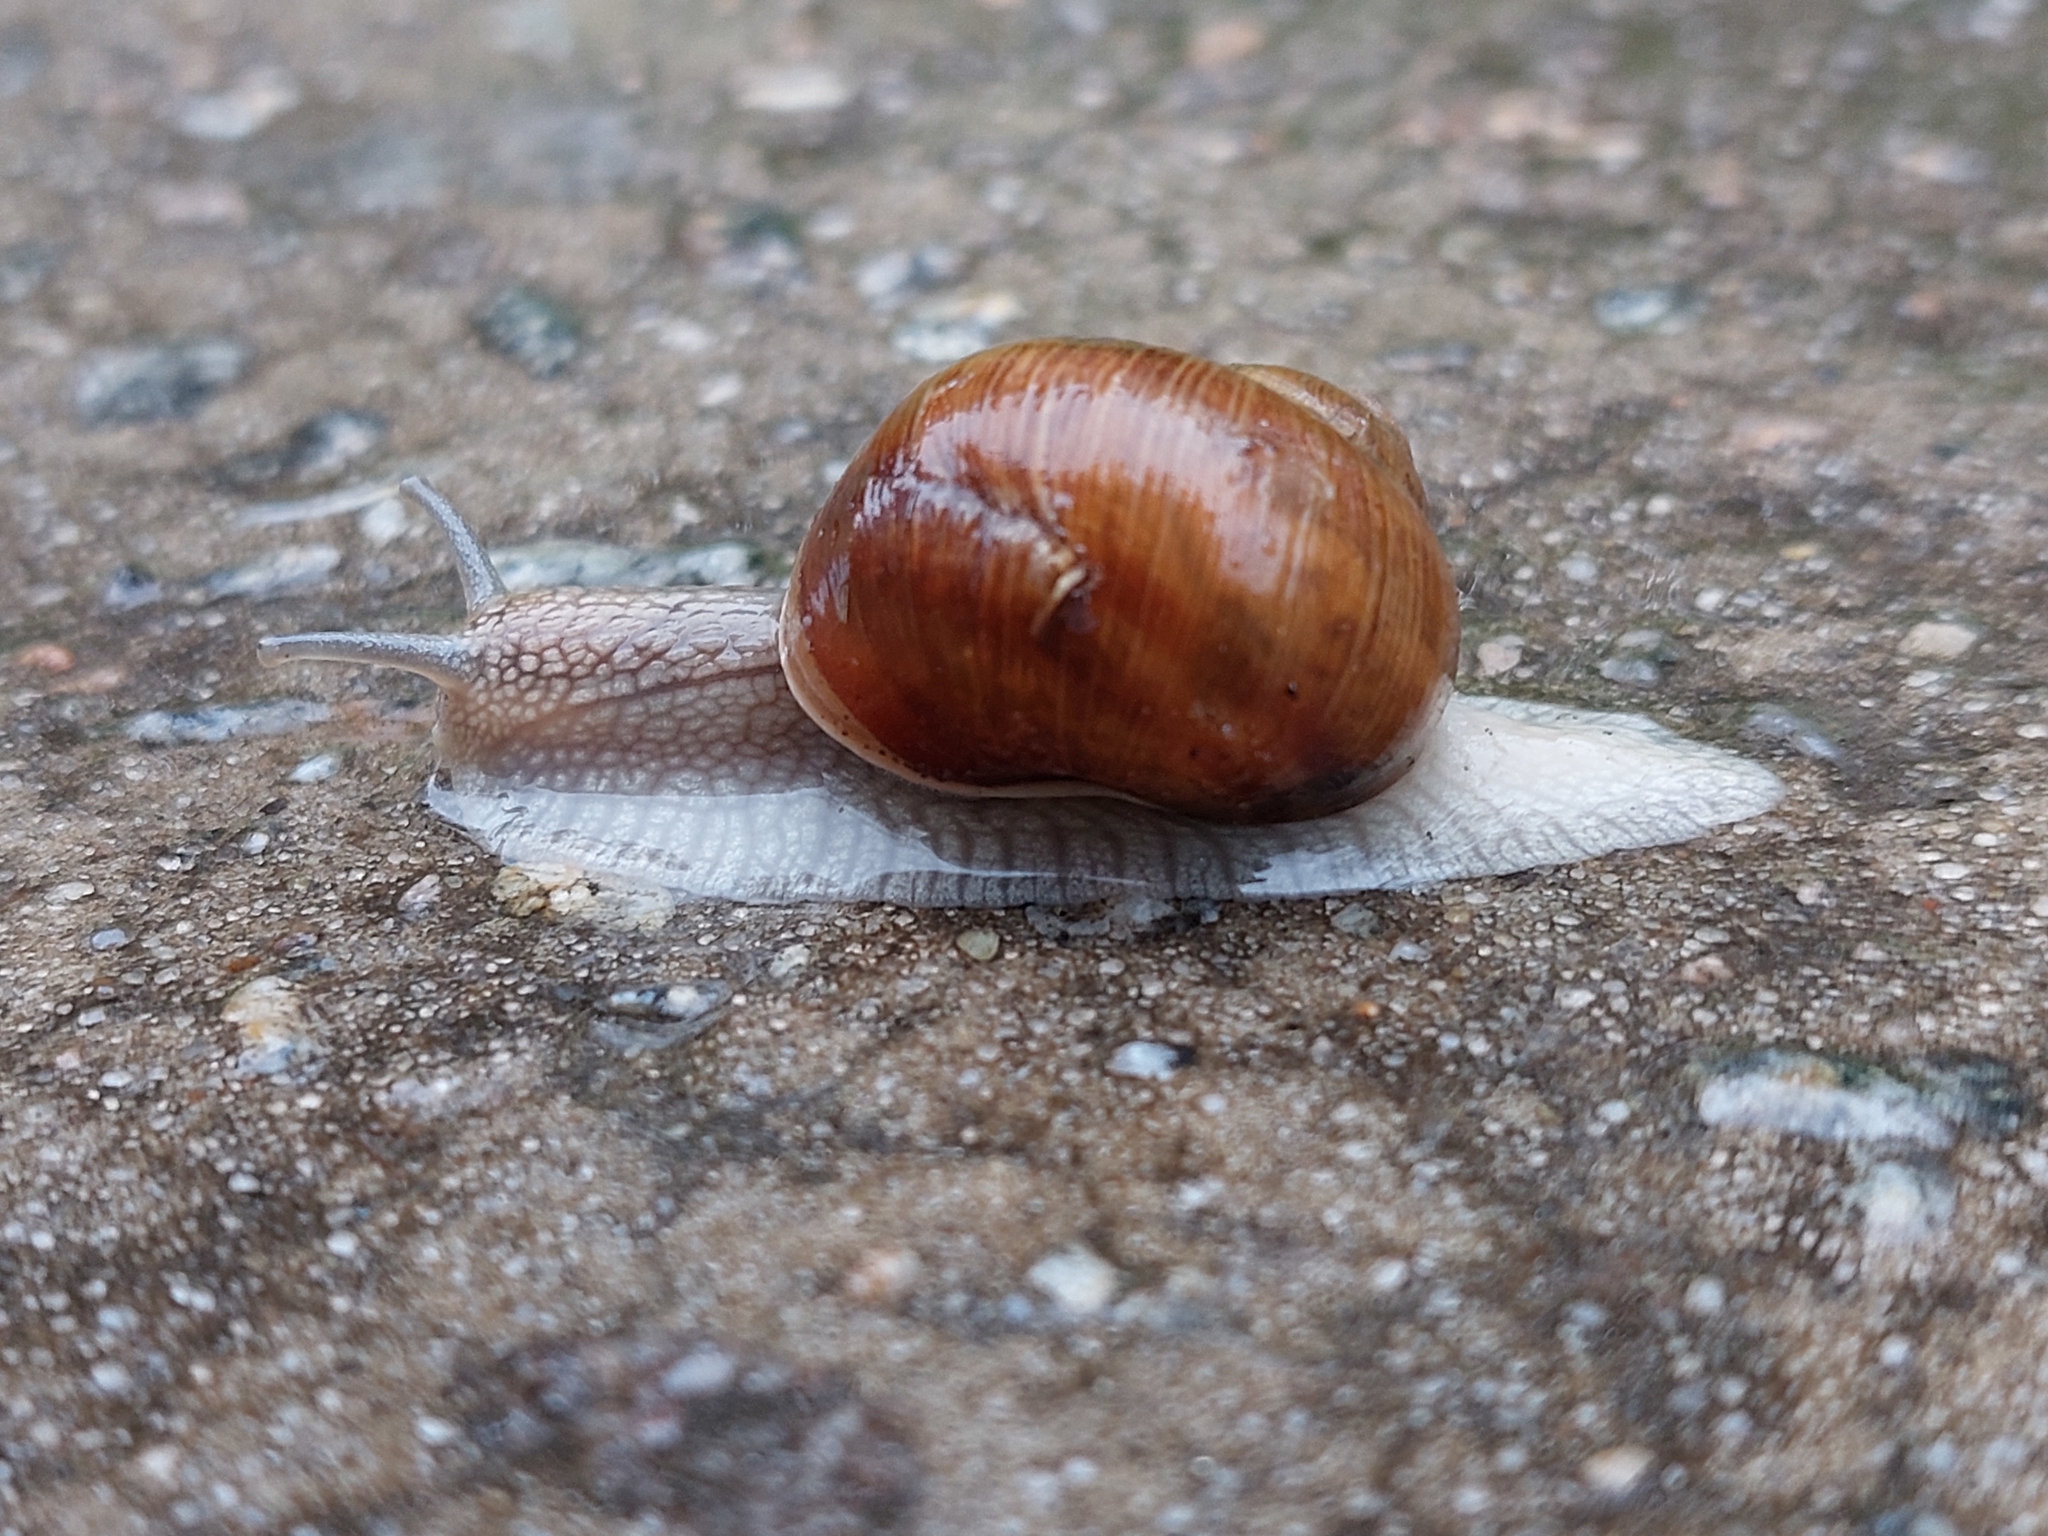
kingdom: Animalia
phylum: Mollusca
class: Gastropoda
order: Stylommatophora
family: Helicidae
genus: Helix
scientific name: Helix pomatia
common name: Roman snail
